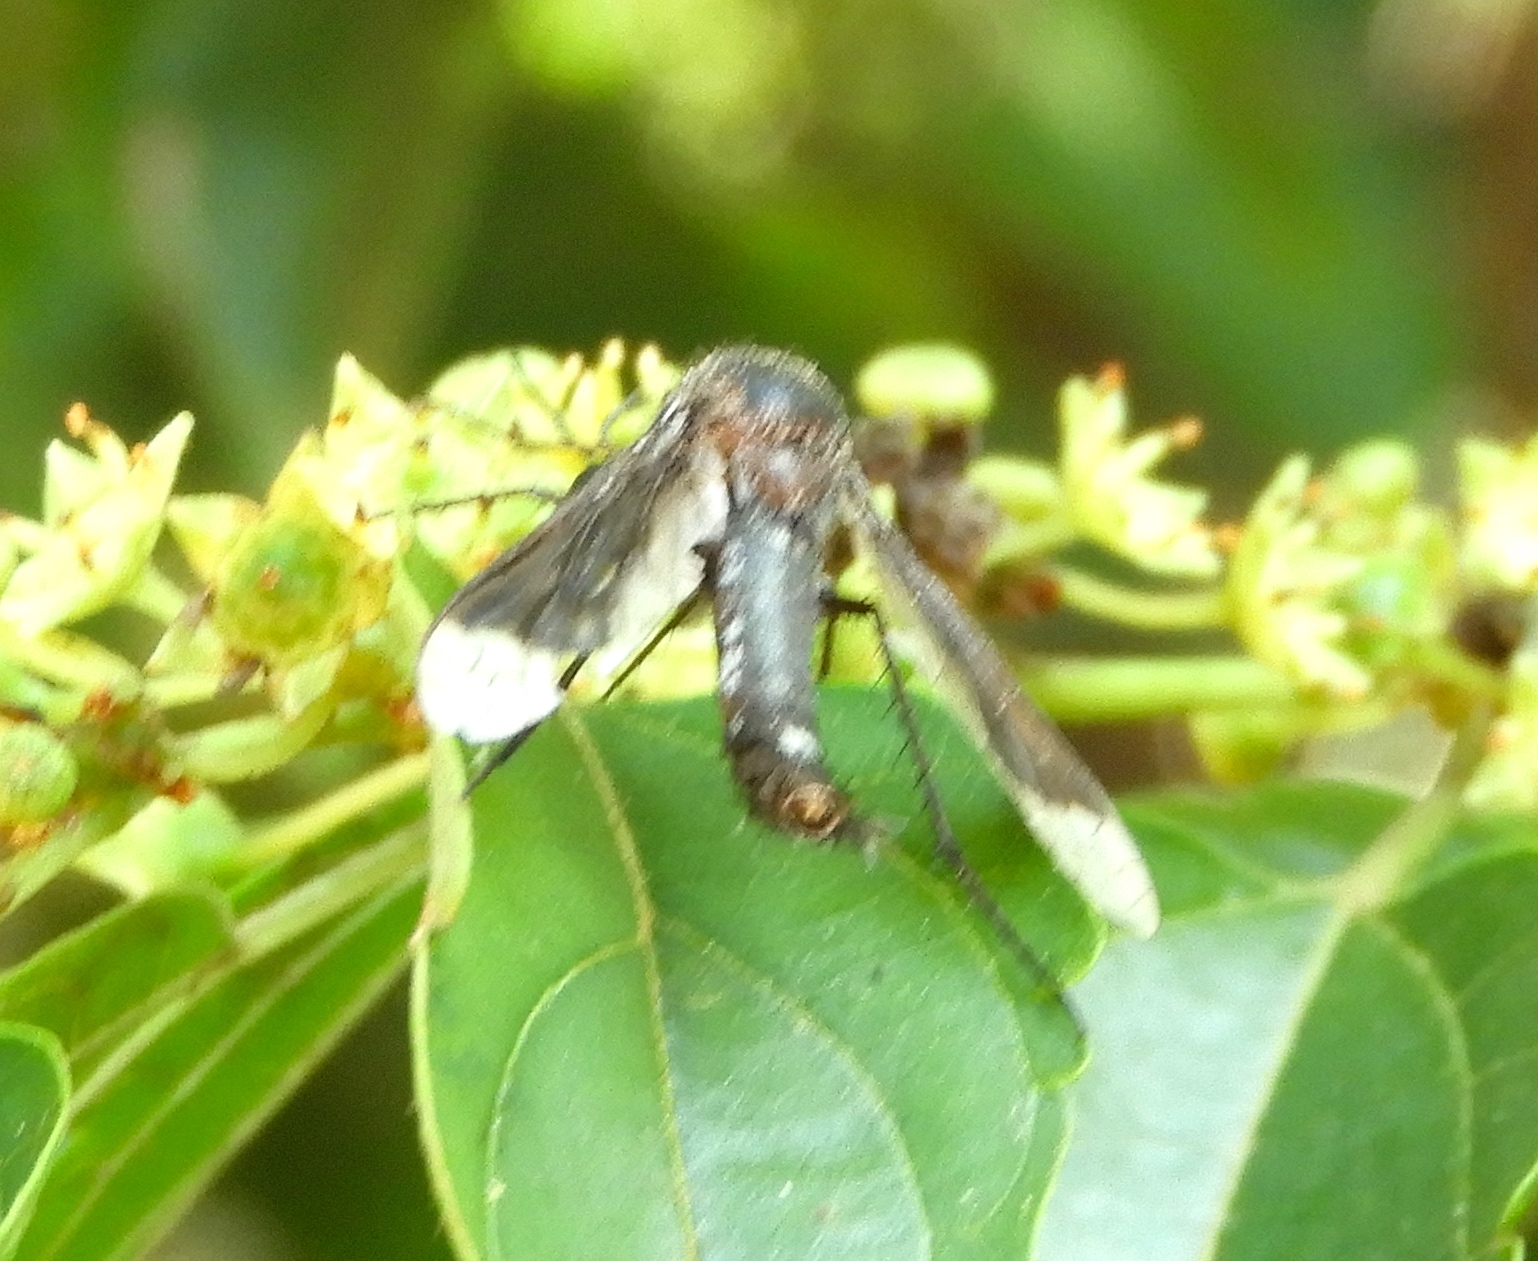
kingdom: Animalia
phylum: Arthropoda
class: Insecta
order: Diptera
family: Bombyliidae
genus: Lepidophora
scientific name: Lepidophora vetusta
